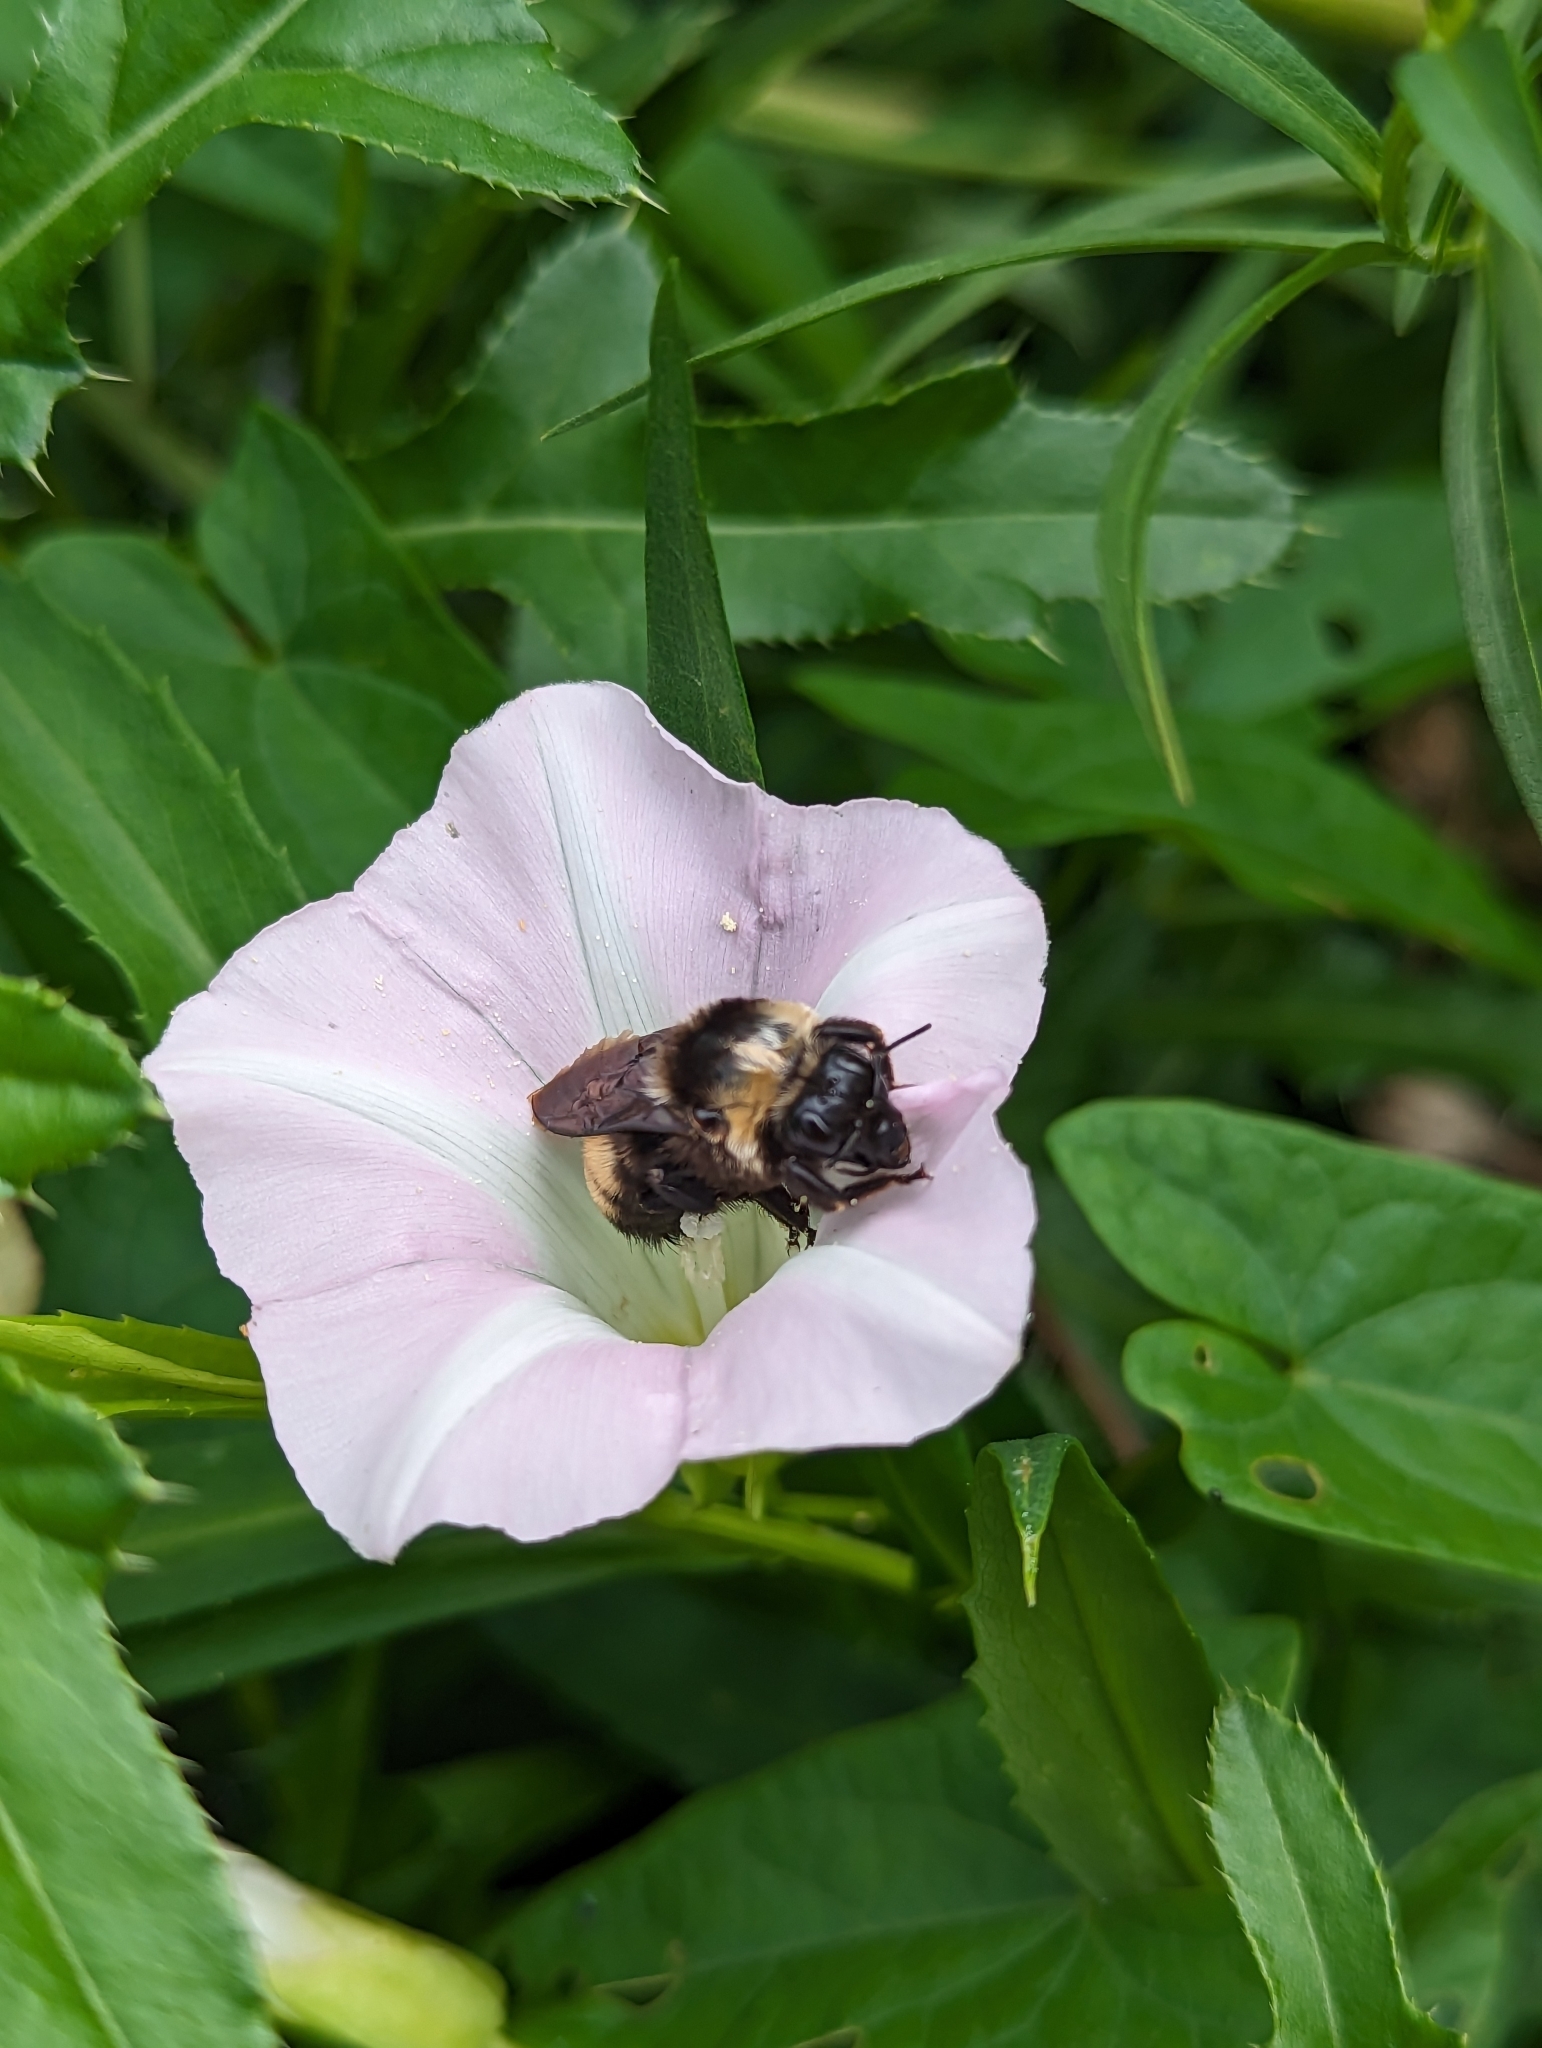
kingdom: Animalia
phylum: Arthropoda
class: Insecta
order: Hymenoptera
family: Apidae
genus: Bombus
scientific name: Bombus auricomus
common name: Black and gold bumble bee
